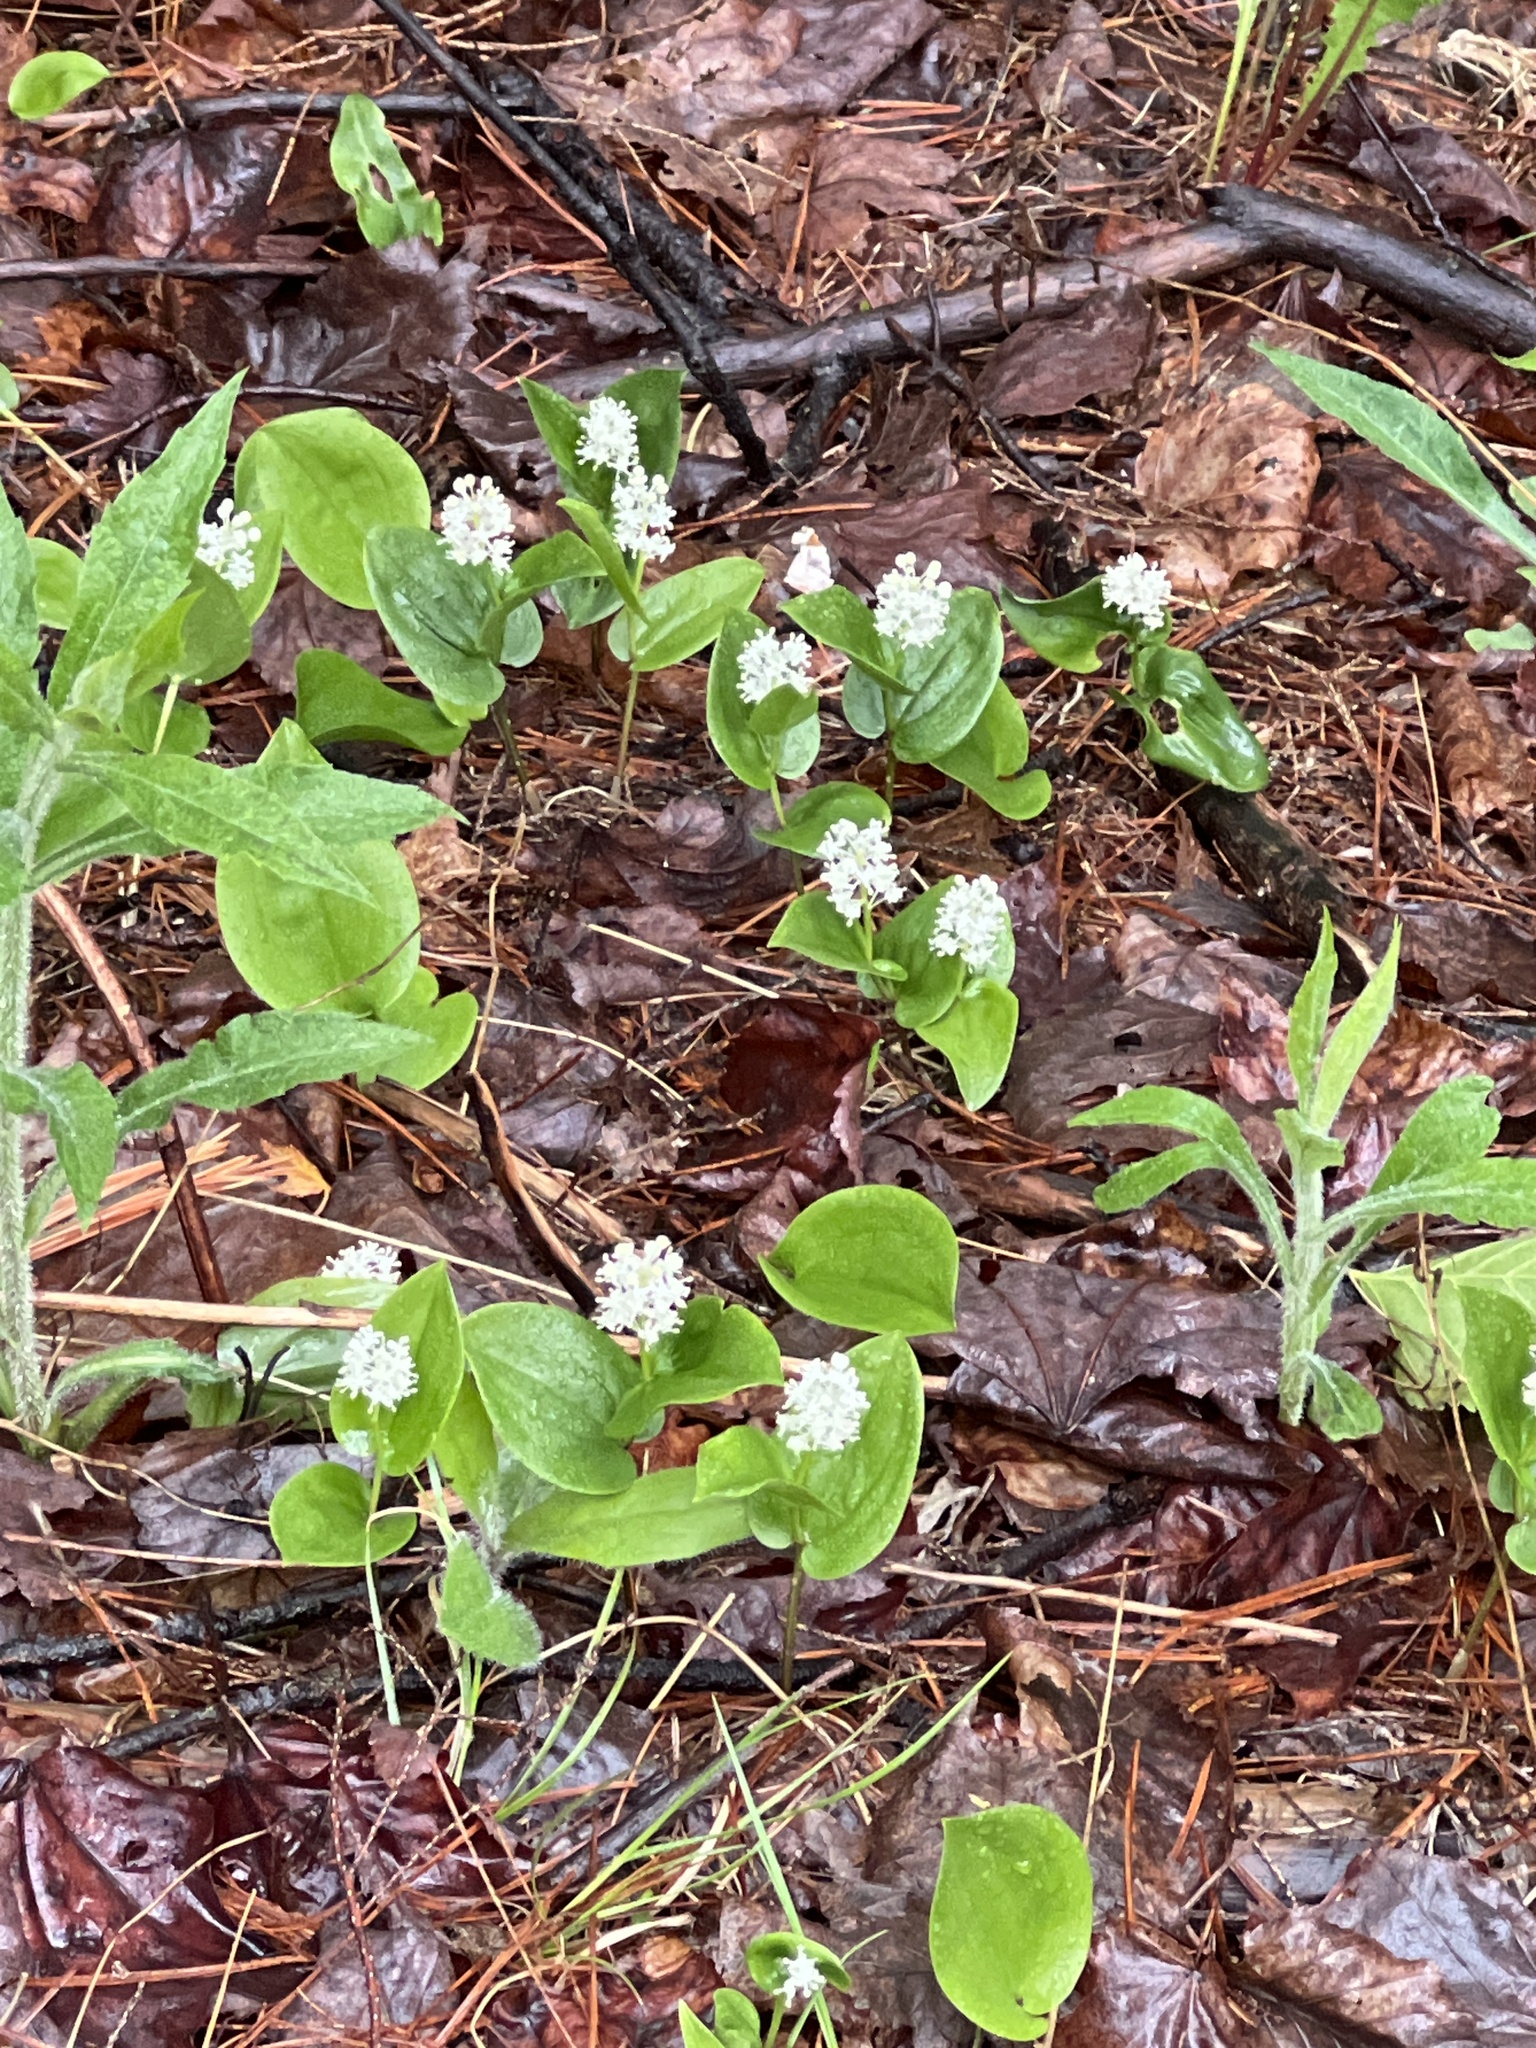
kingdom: Plantae
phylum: Tracheophyta
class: Liliopsida
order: Asparagales
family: Asparagaceae
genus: Maianthemum
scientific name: Maianthemum canadense
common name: False lily-of-the-valley
